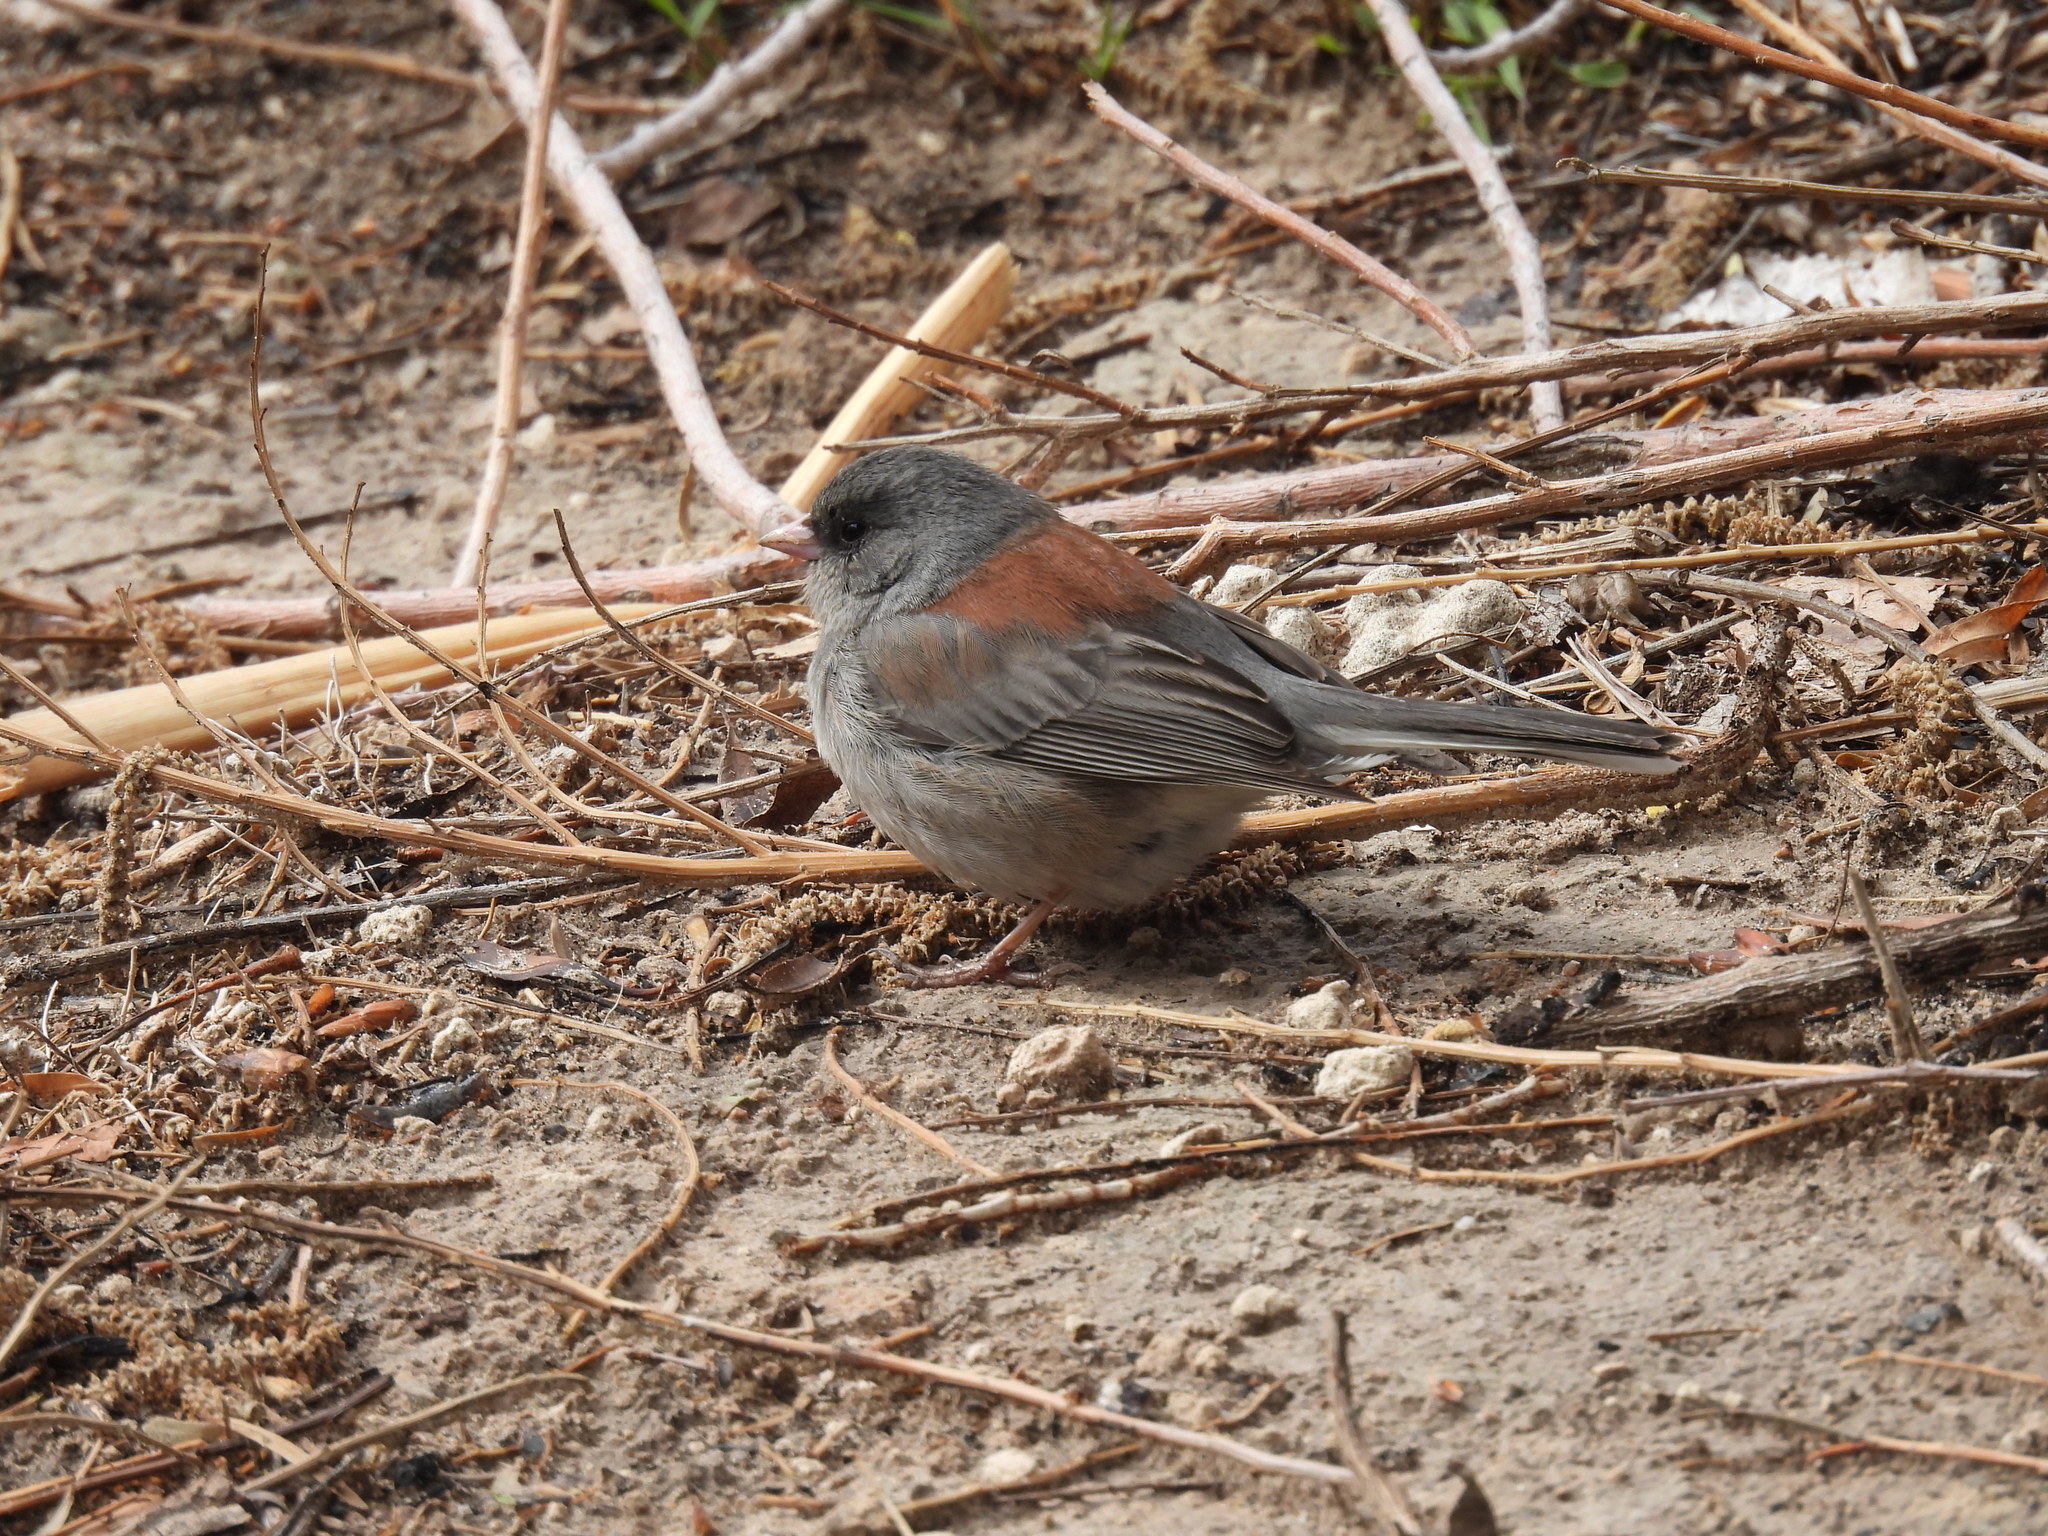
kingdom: Animalia
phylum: Chordata
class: Aves
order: Passeriformes
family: Passerellidae
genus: Junco
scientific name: Junco hyemalis
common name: Dark-eyed junco
